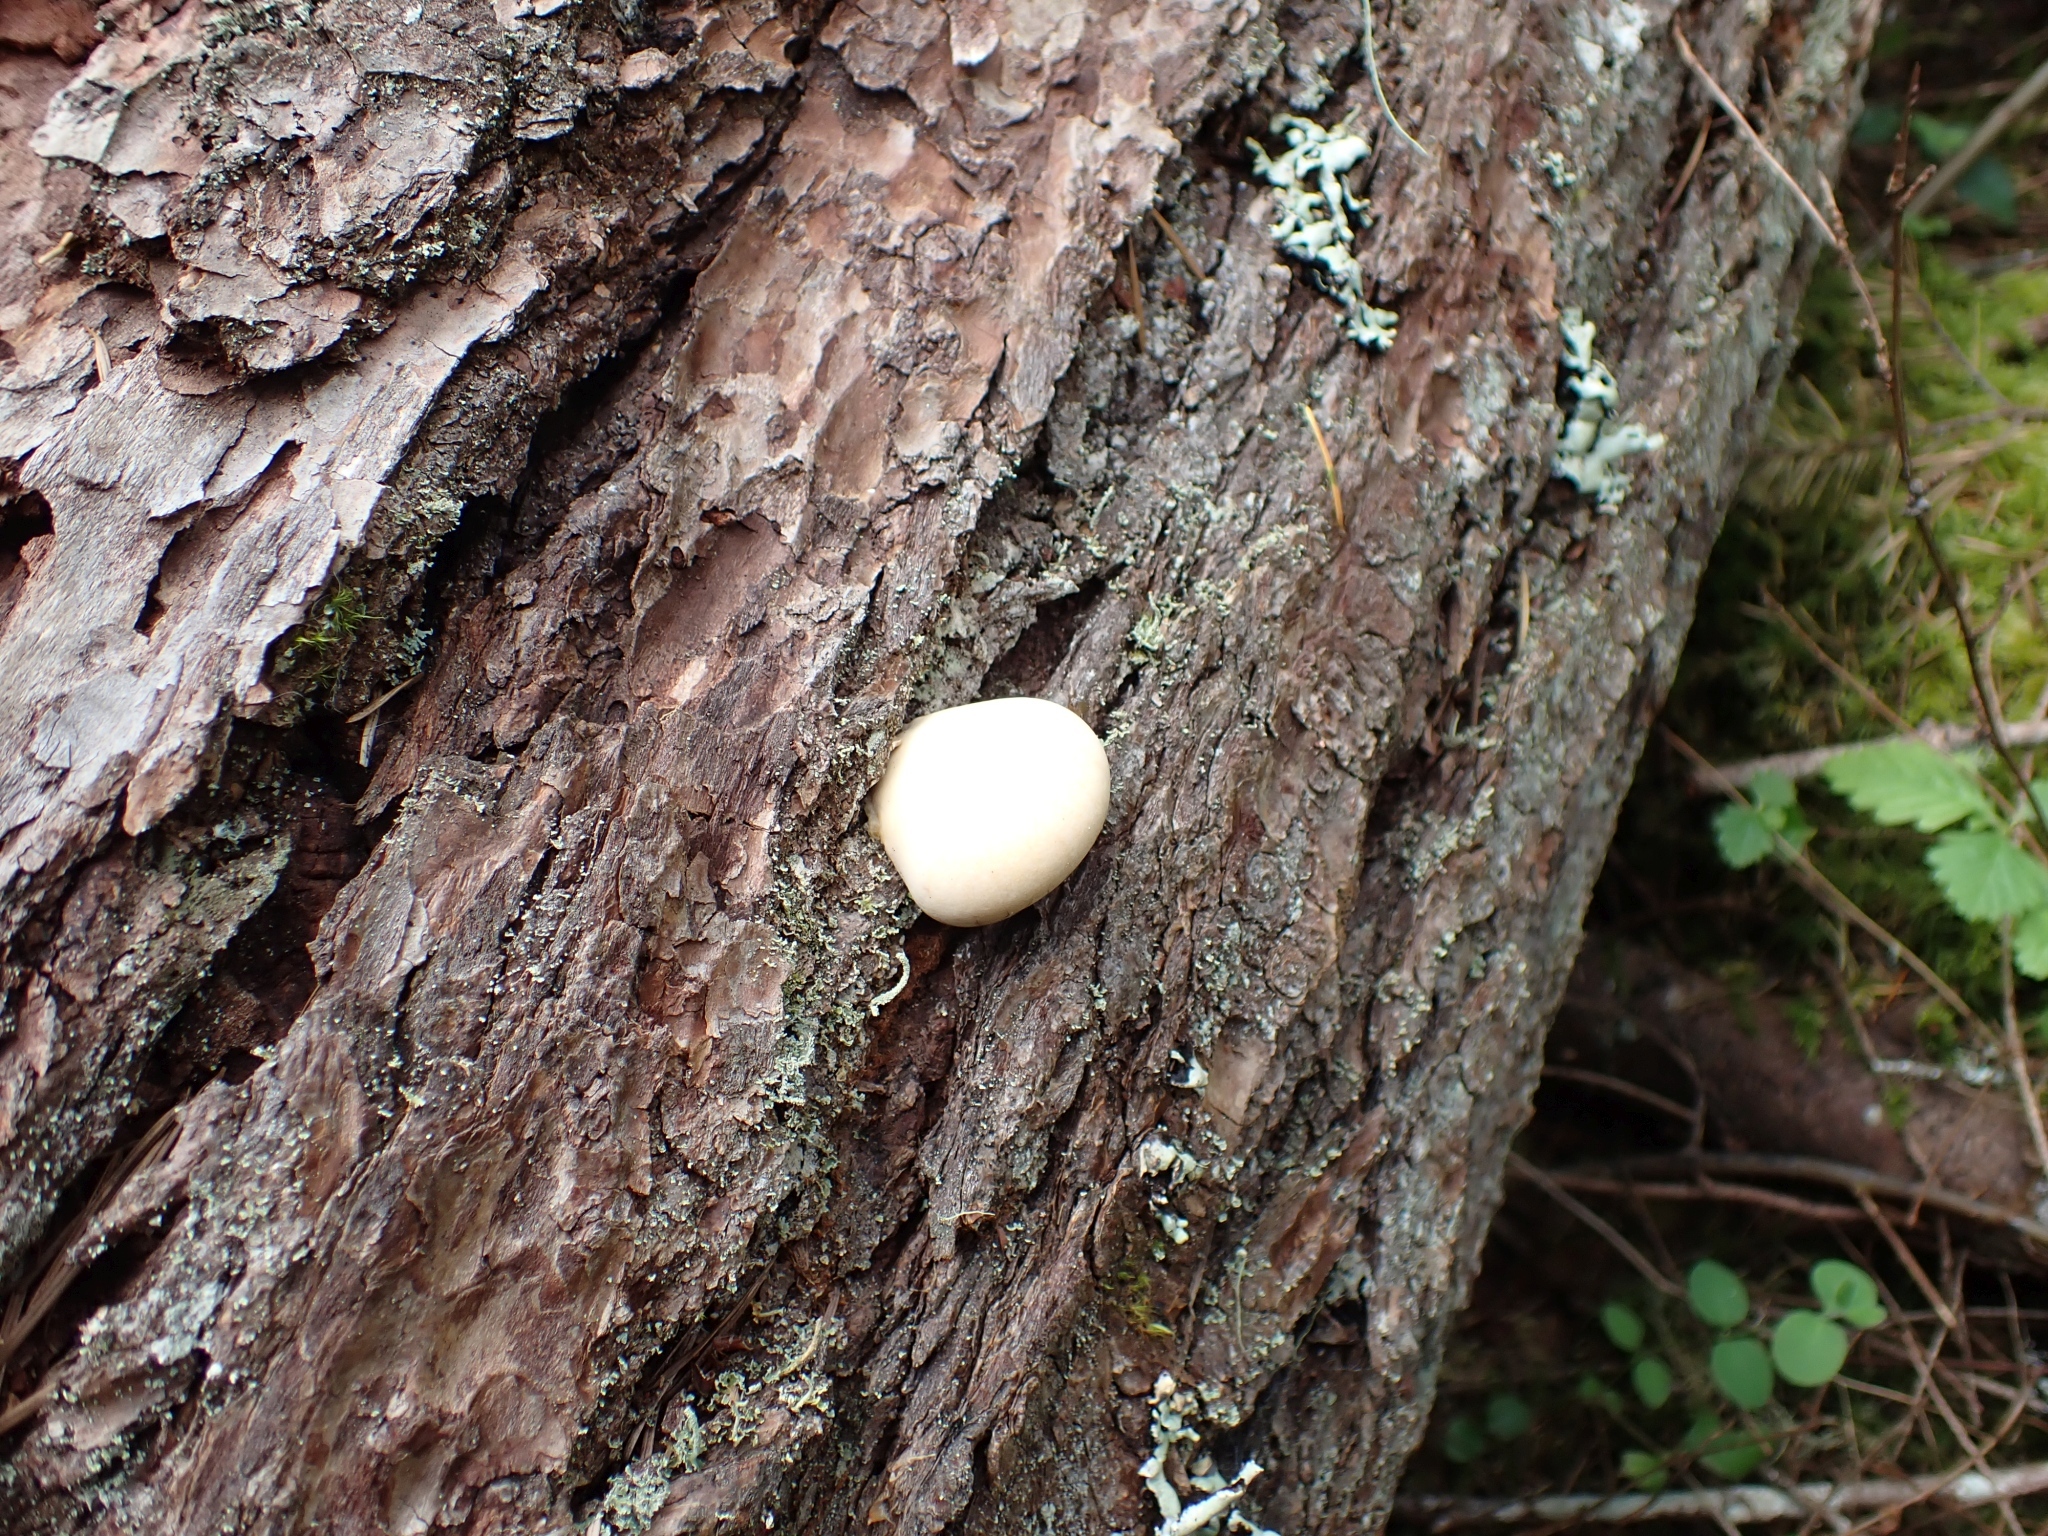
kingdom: Fungi
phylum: Basidiomycota
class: Agaricomycetes
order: Polyporales
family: Polyporaceae
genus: Cryptoporus
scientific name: Cryptoporus volvatus
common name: Veiled polypore
